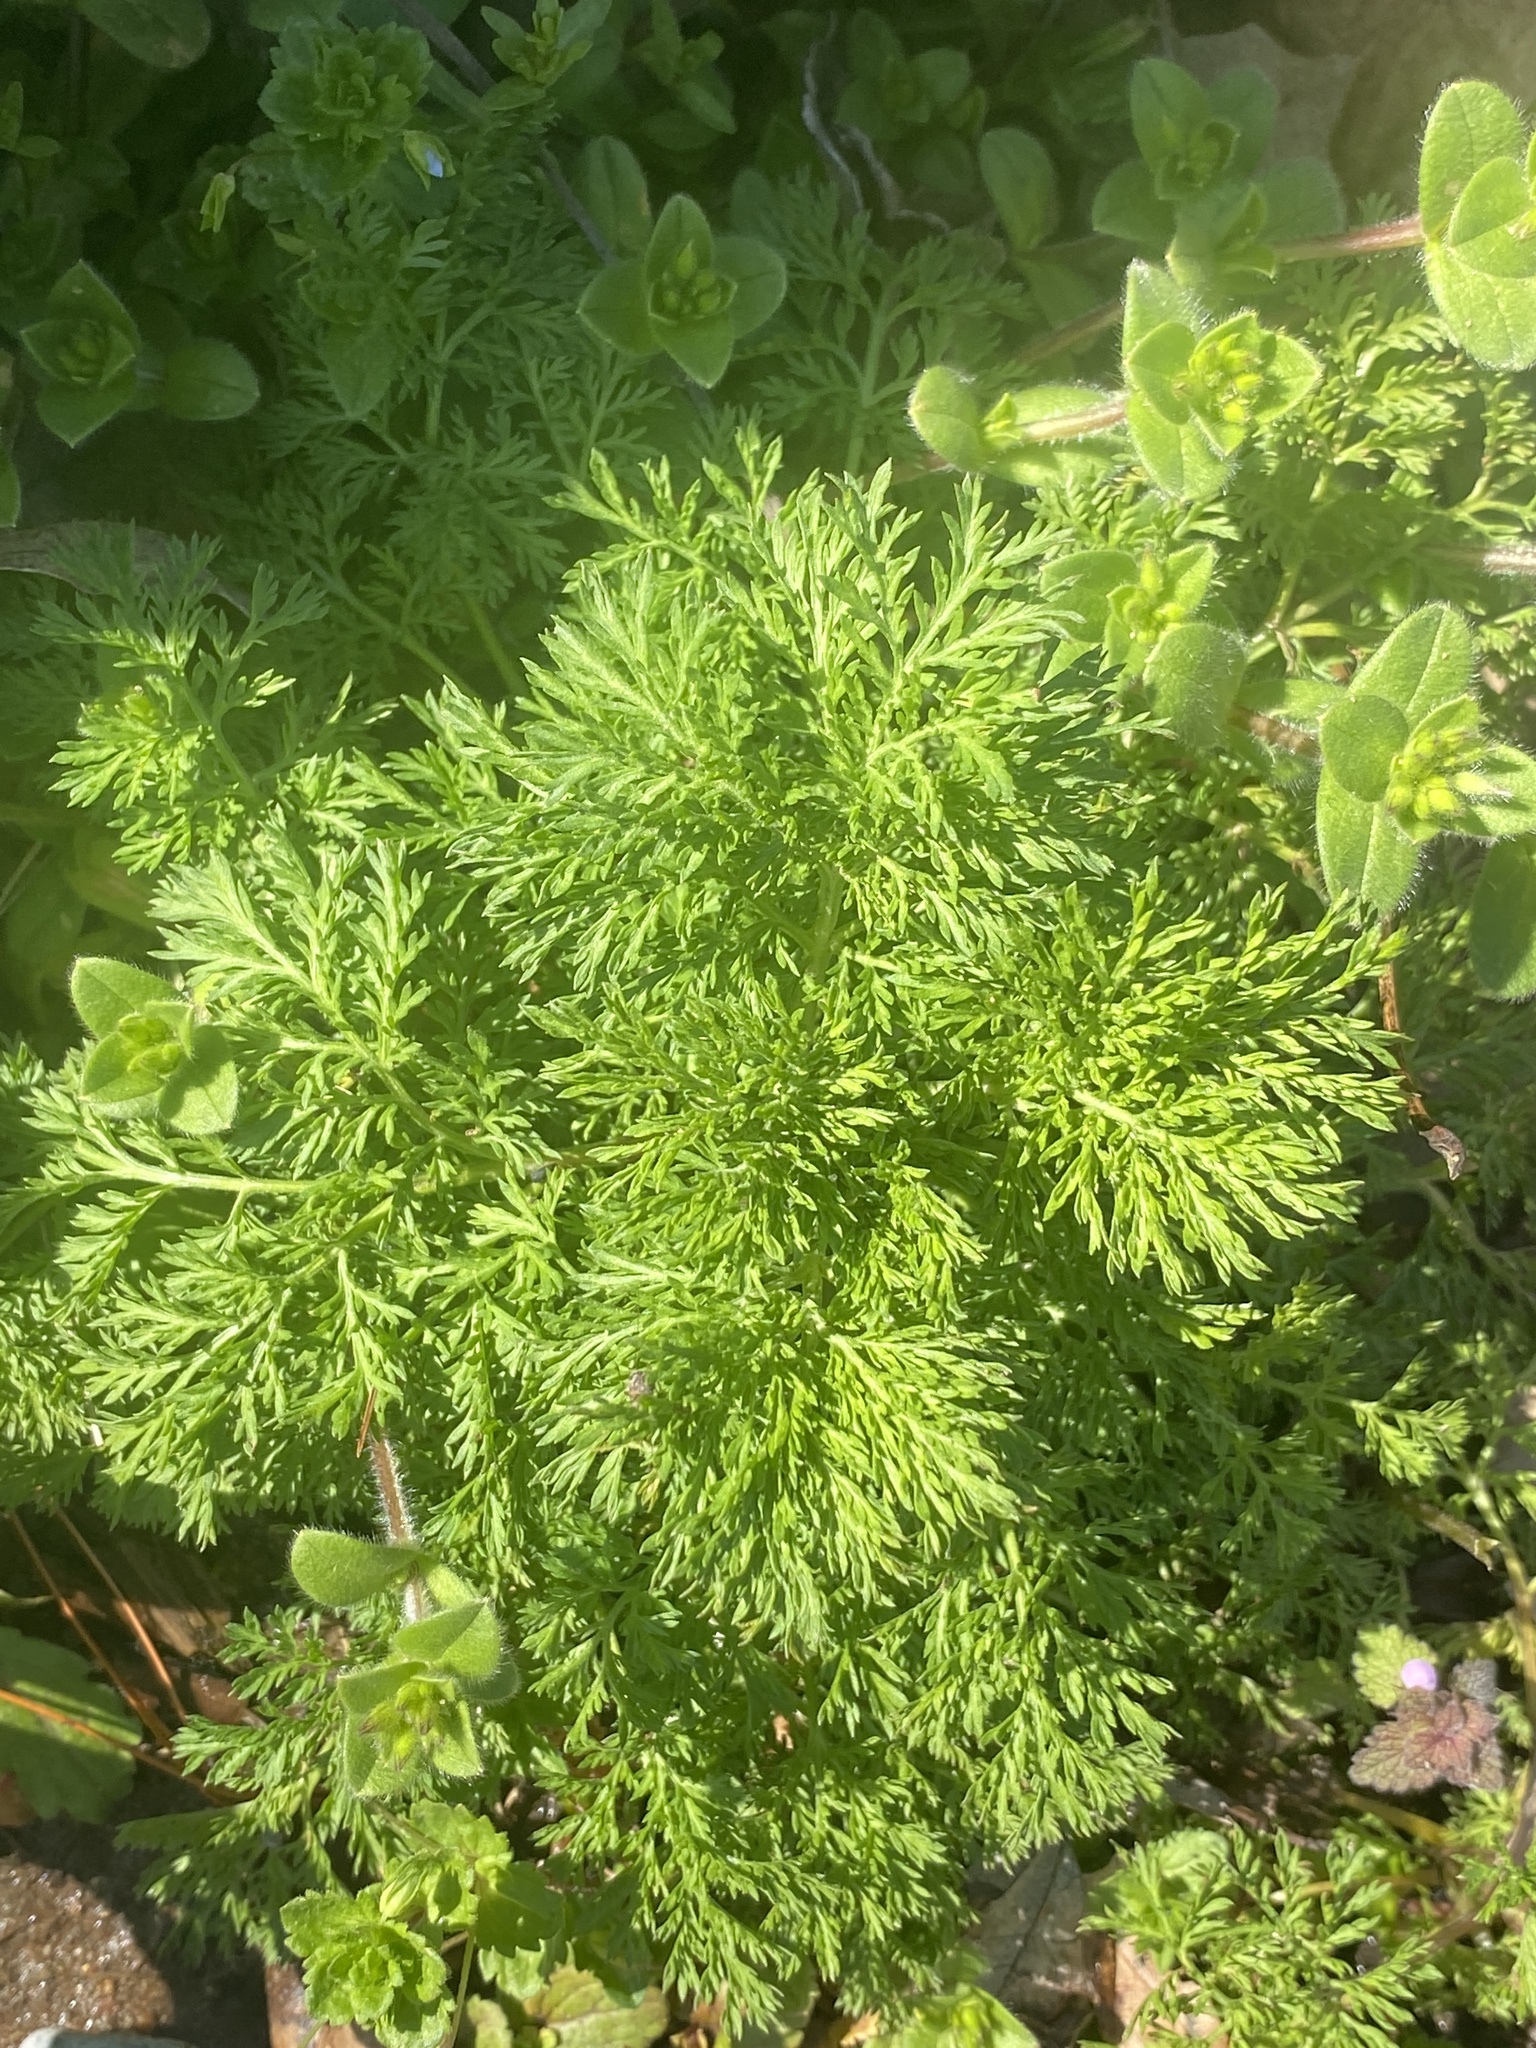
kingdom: Plantae
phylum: Tracheophyta
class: Magnoliopsida
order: Asterales
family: Asteraceae
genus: Artemisia
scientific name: Artemisia annua
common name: Sweet sagewort
